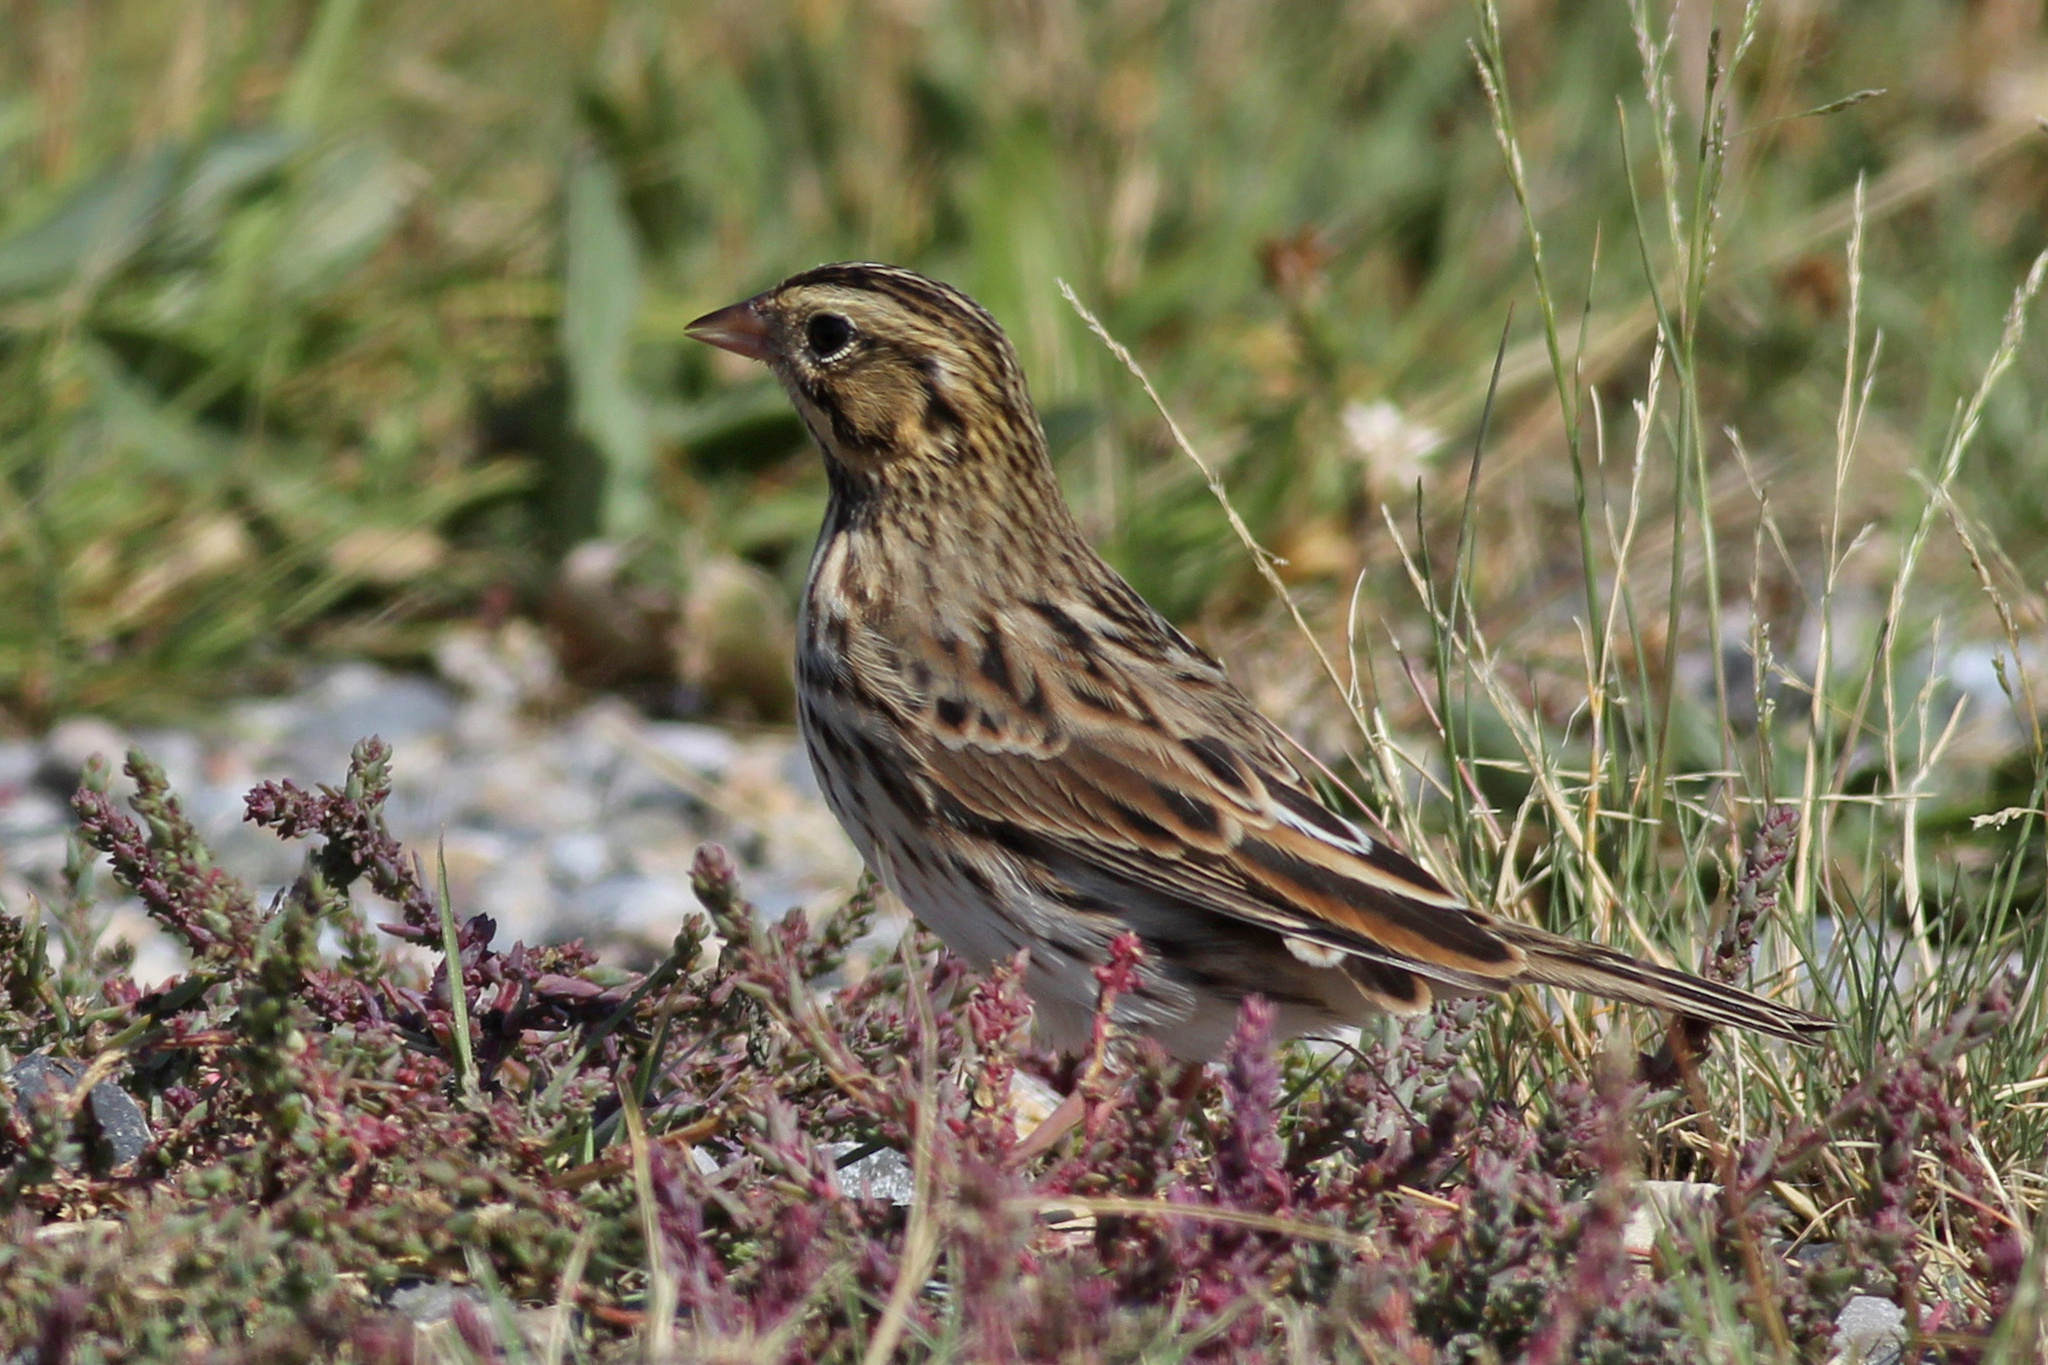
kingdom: Animalia
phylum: Chordata
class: Aves
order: Passeriformes
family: Passerellidae
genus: Passerculus
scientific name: Passerculus sandwichensis
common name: Savannah sparrow
